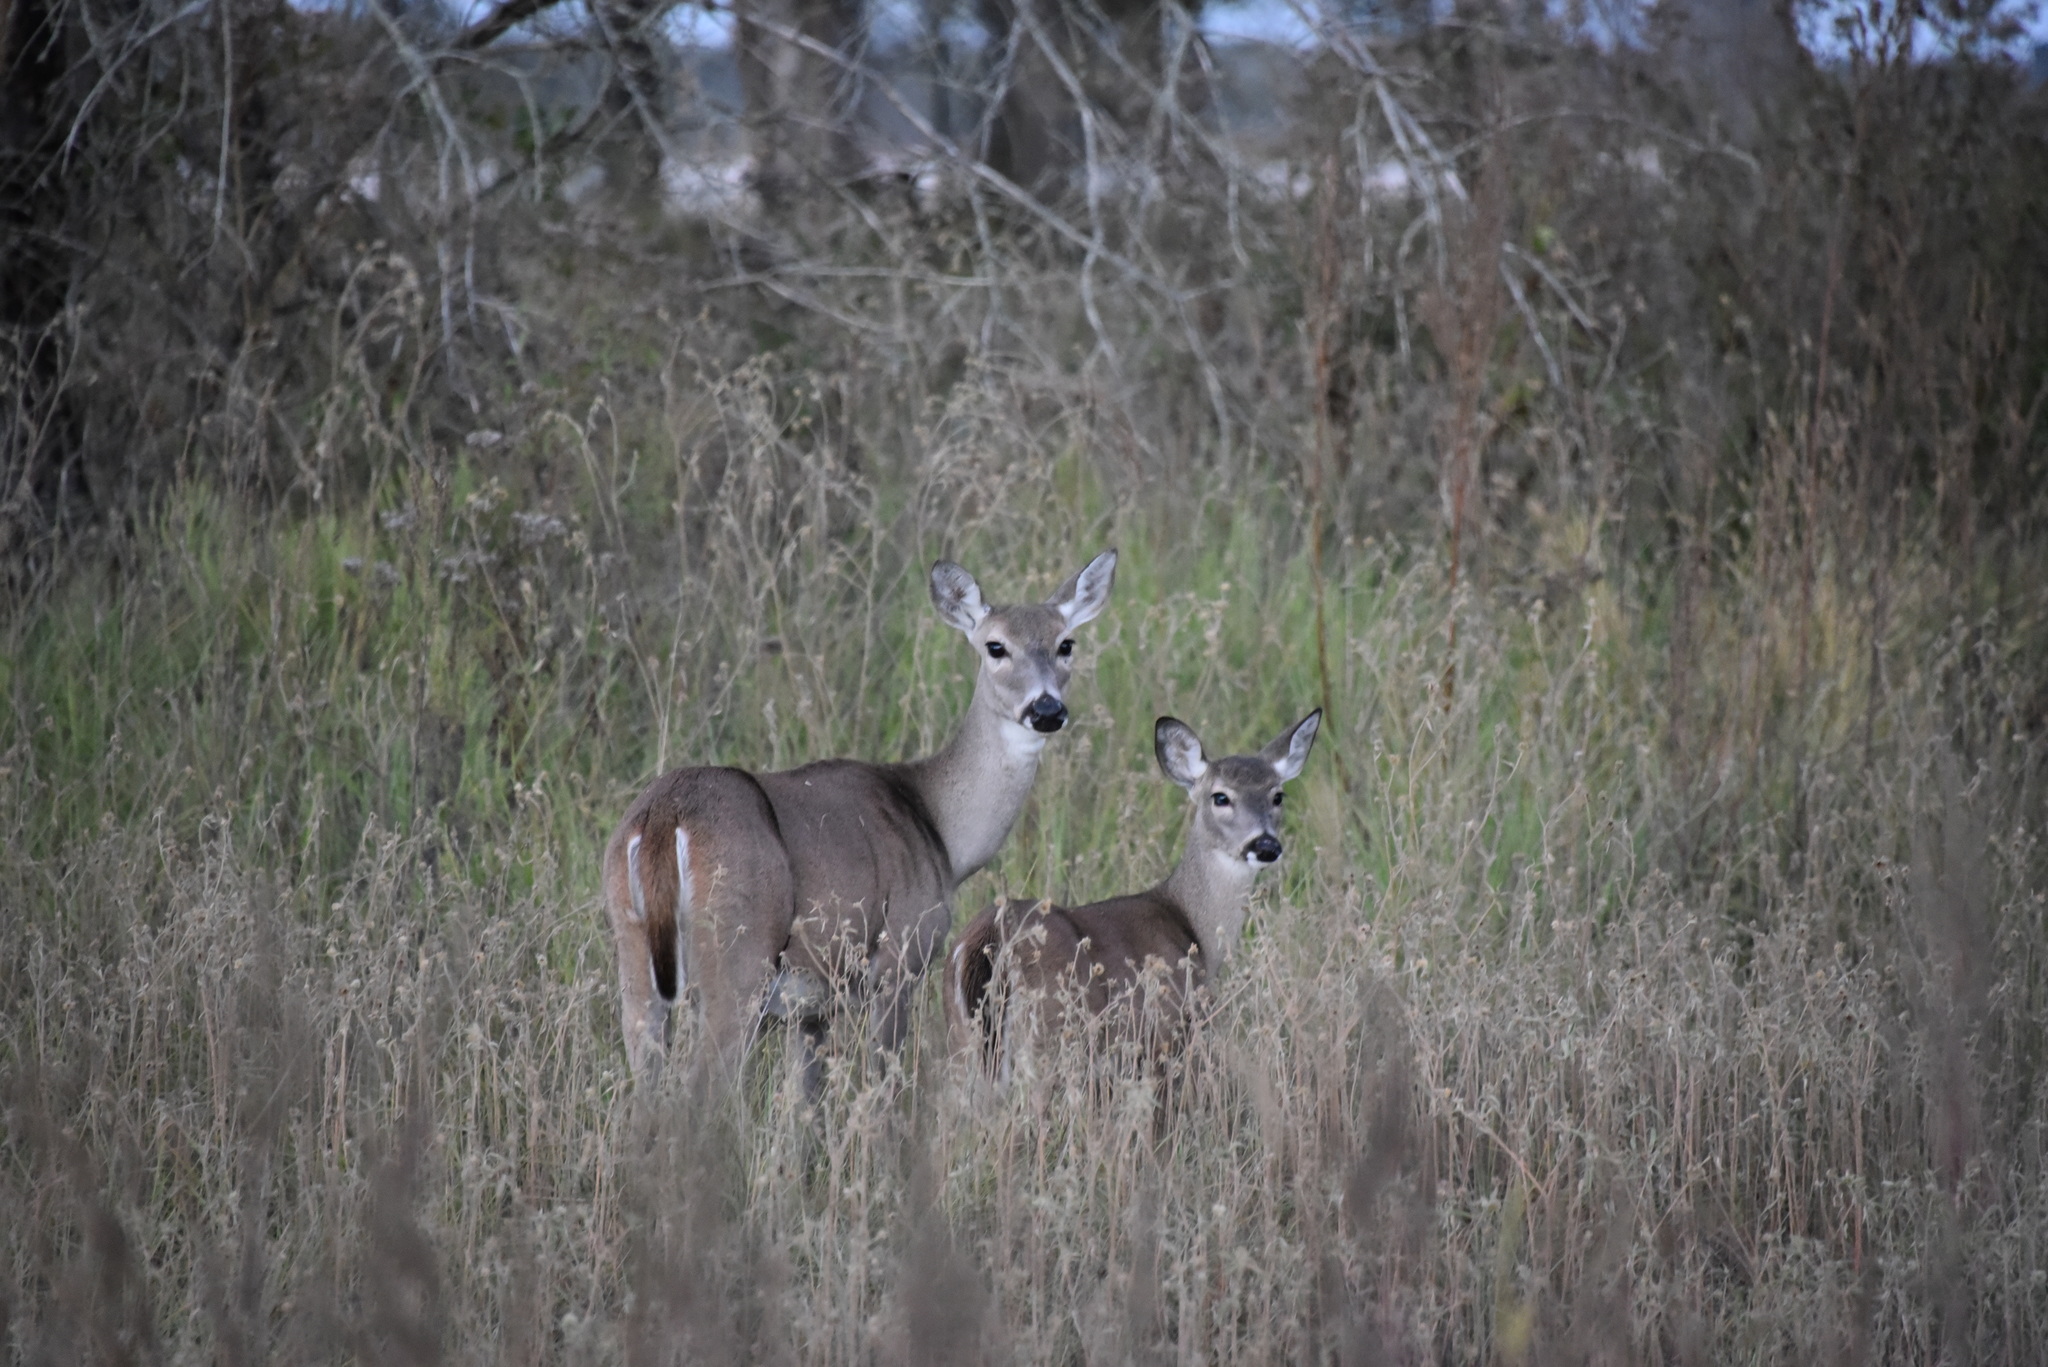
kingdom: Animalia
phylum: Chordata
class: Mammalia
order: Artiodactyla
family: Cervidae
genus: Odocoileus
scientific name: Odocoileus virginianus
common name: White-tailed deer
